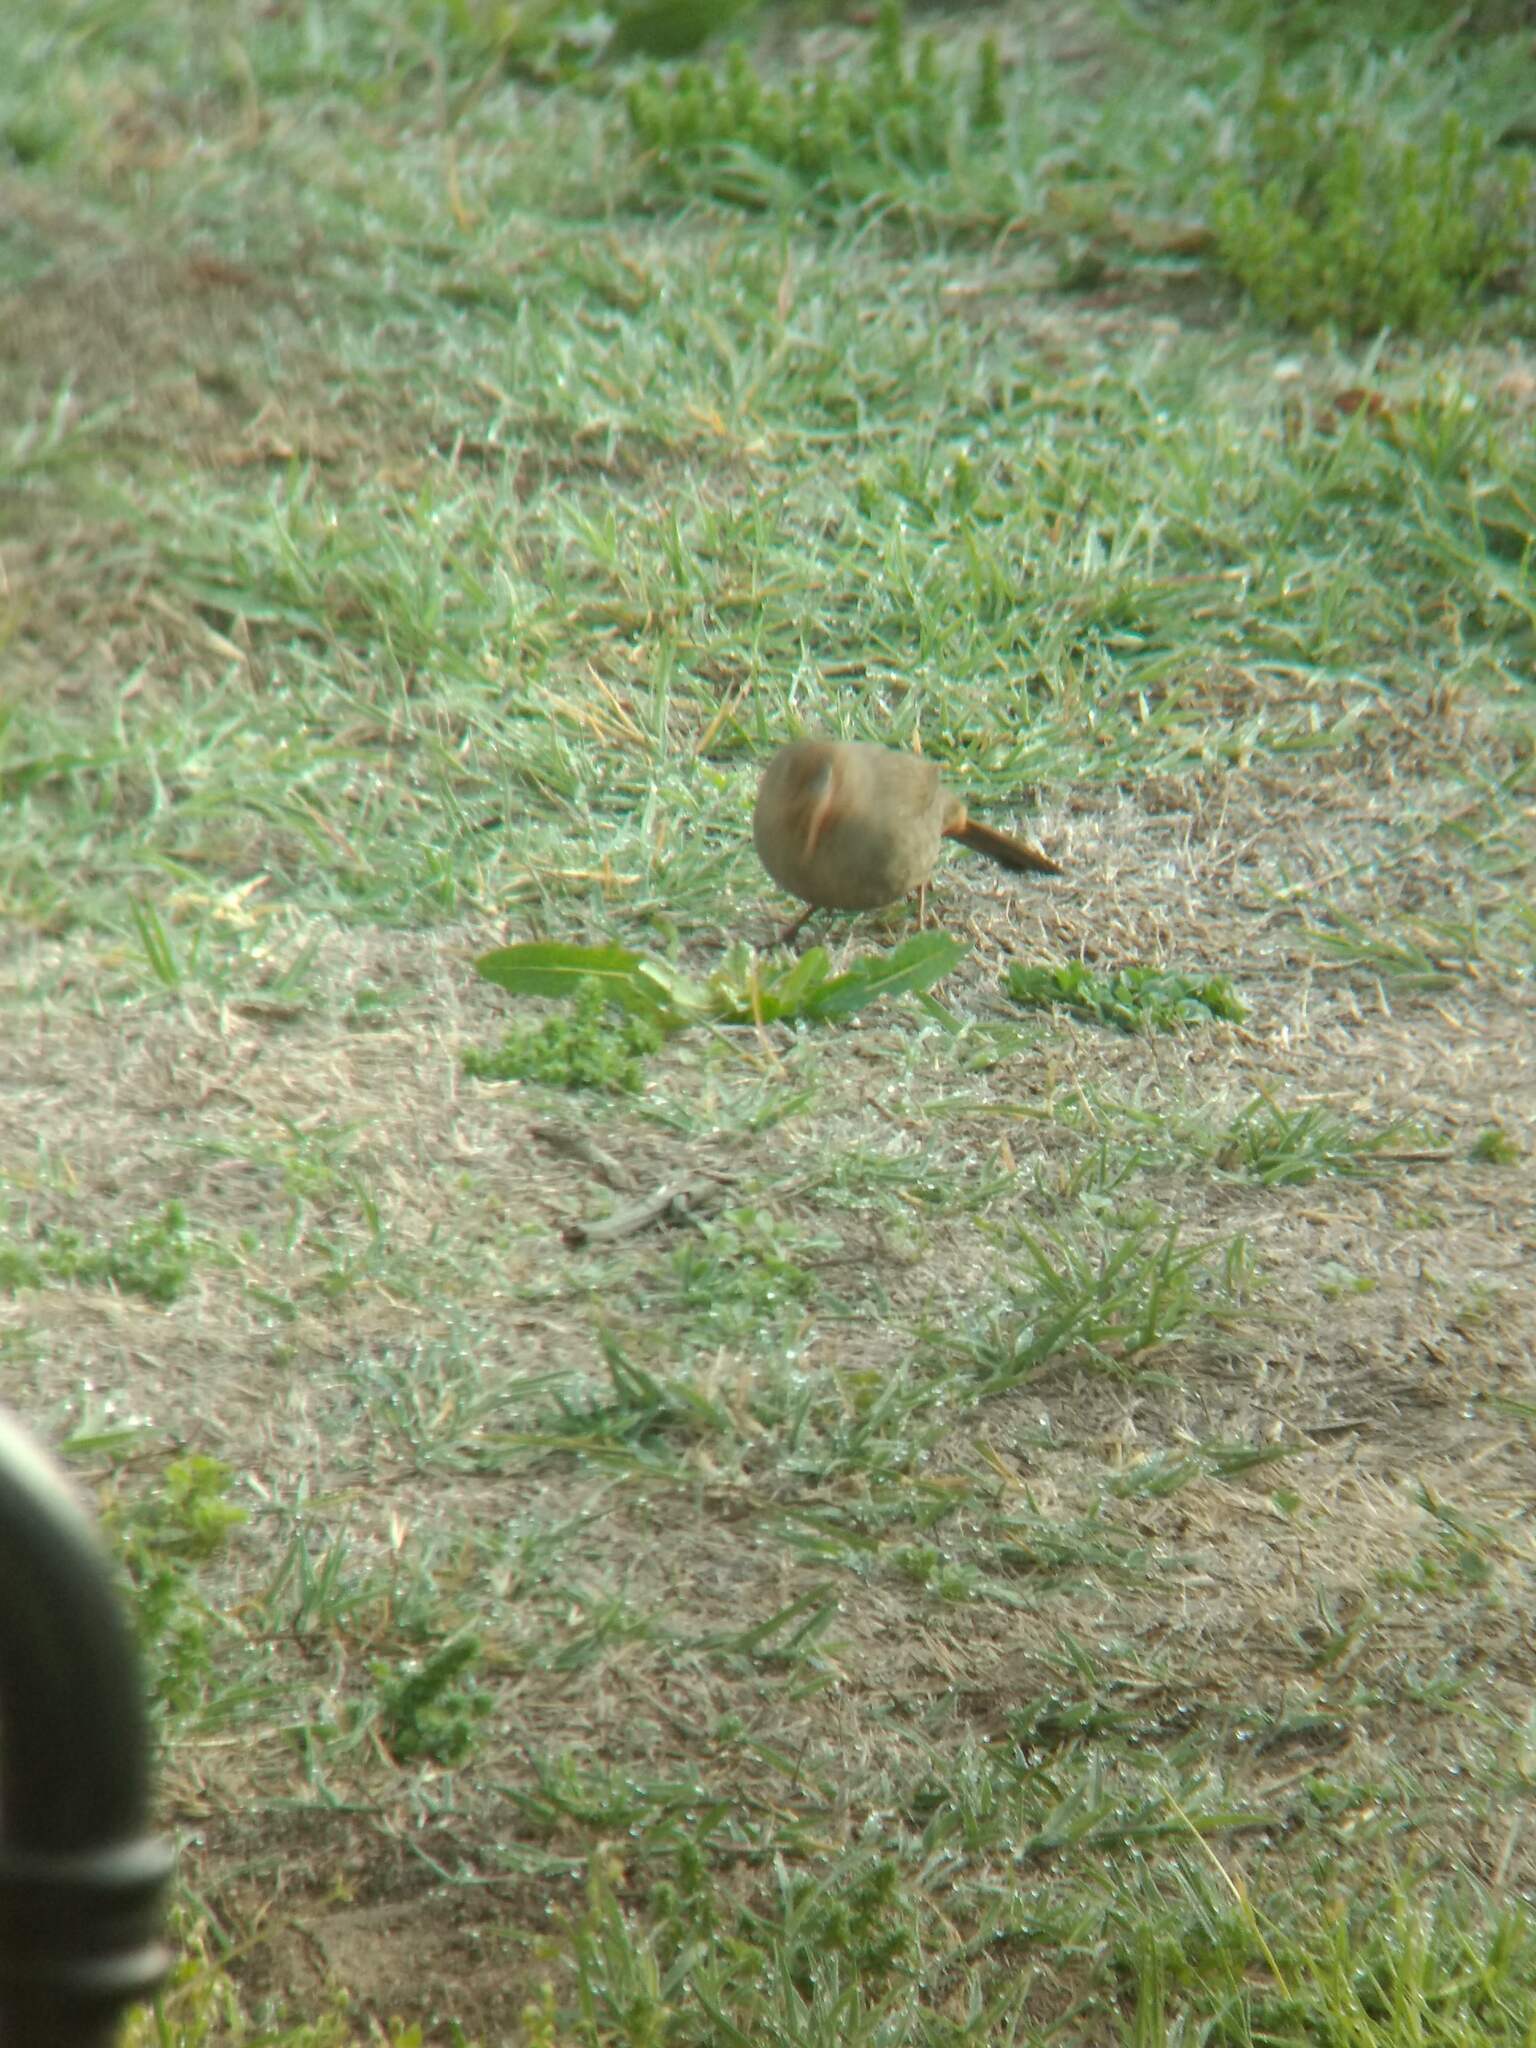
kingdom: Animalia
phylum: Chordata
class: Aves
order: Passeriformes
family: Passerellidae
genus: Melozone
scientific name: Melozone crissalis
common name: California towhee
